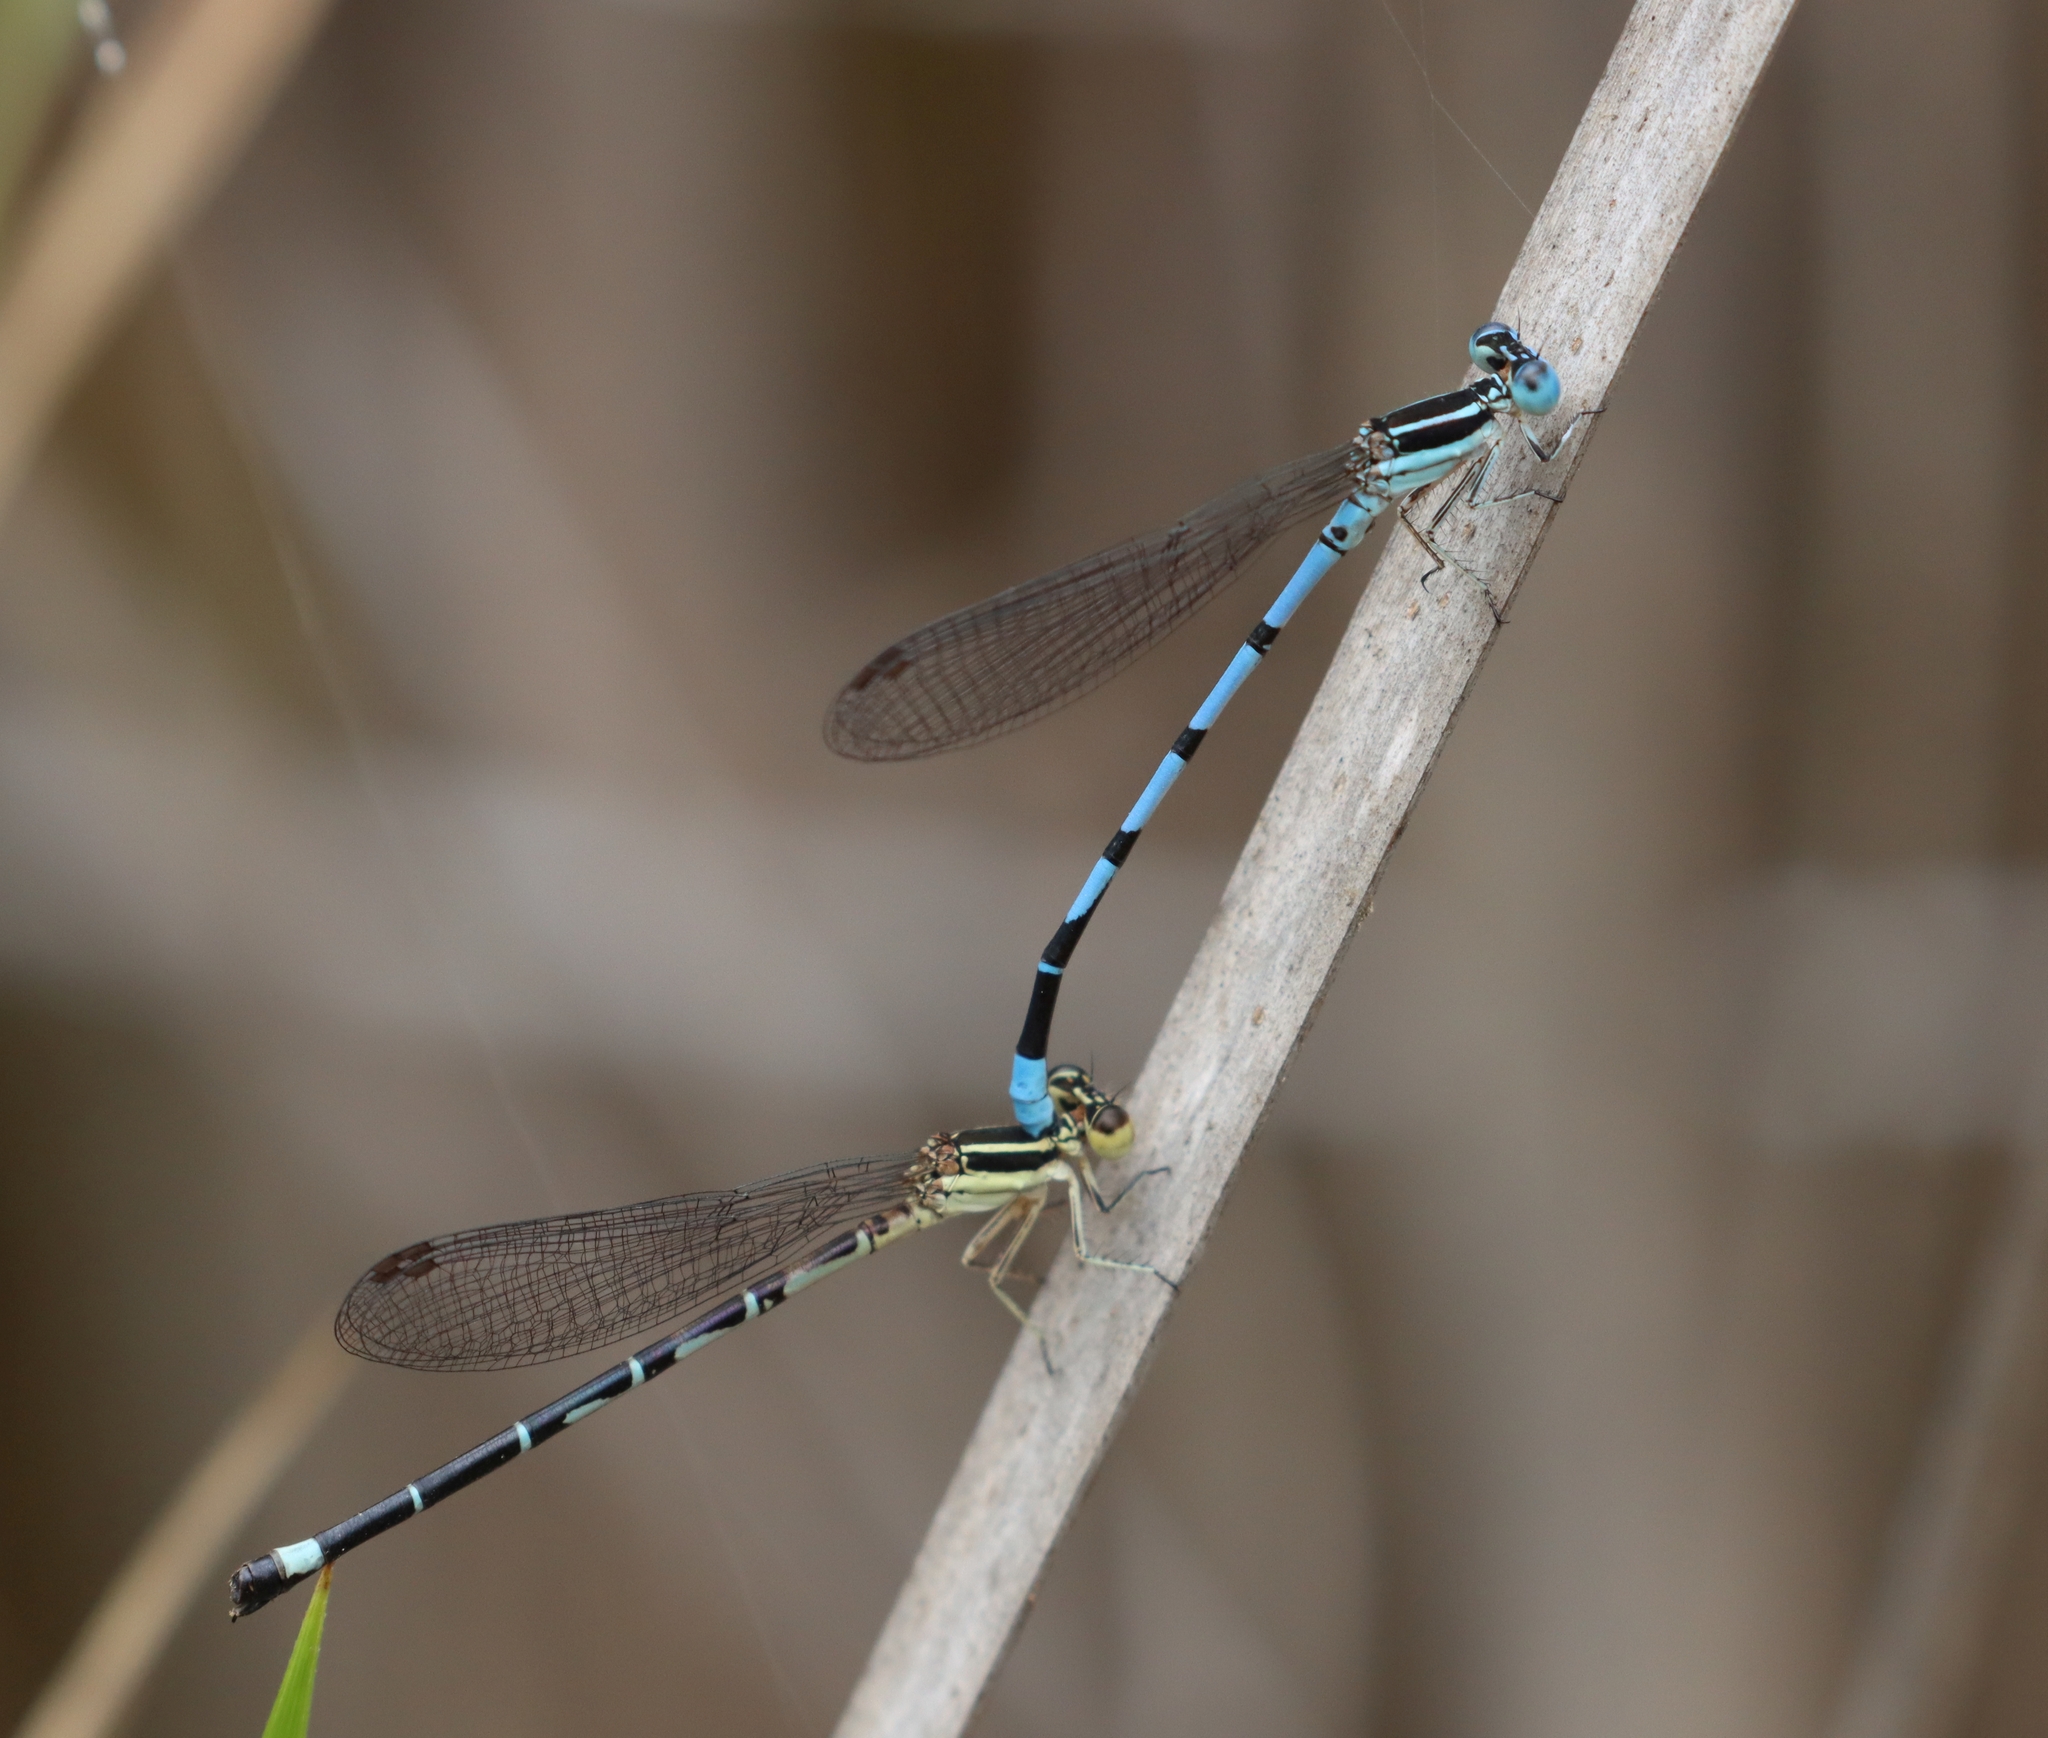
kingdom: Animalia
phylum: Arthropoda
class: Insecta
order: Odonata
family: Coenagrionidae
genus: Argia
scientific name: Argia bipunctulata
